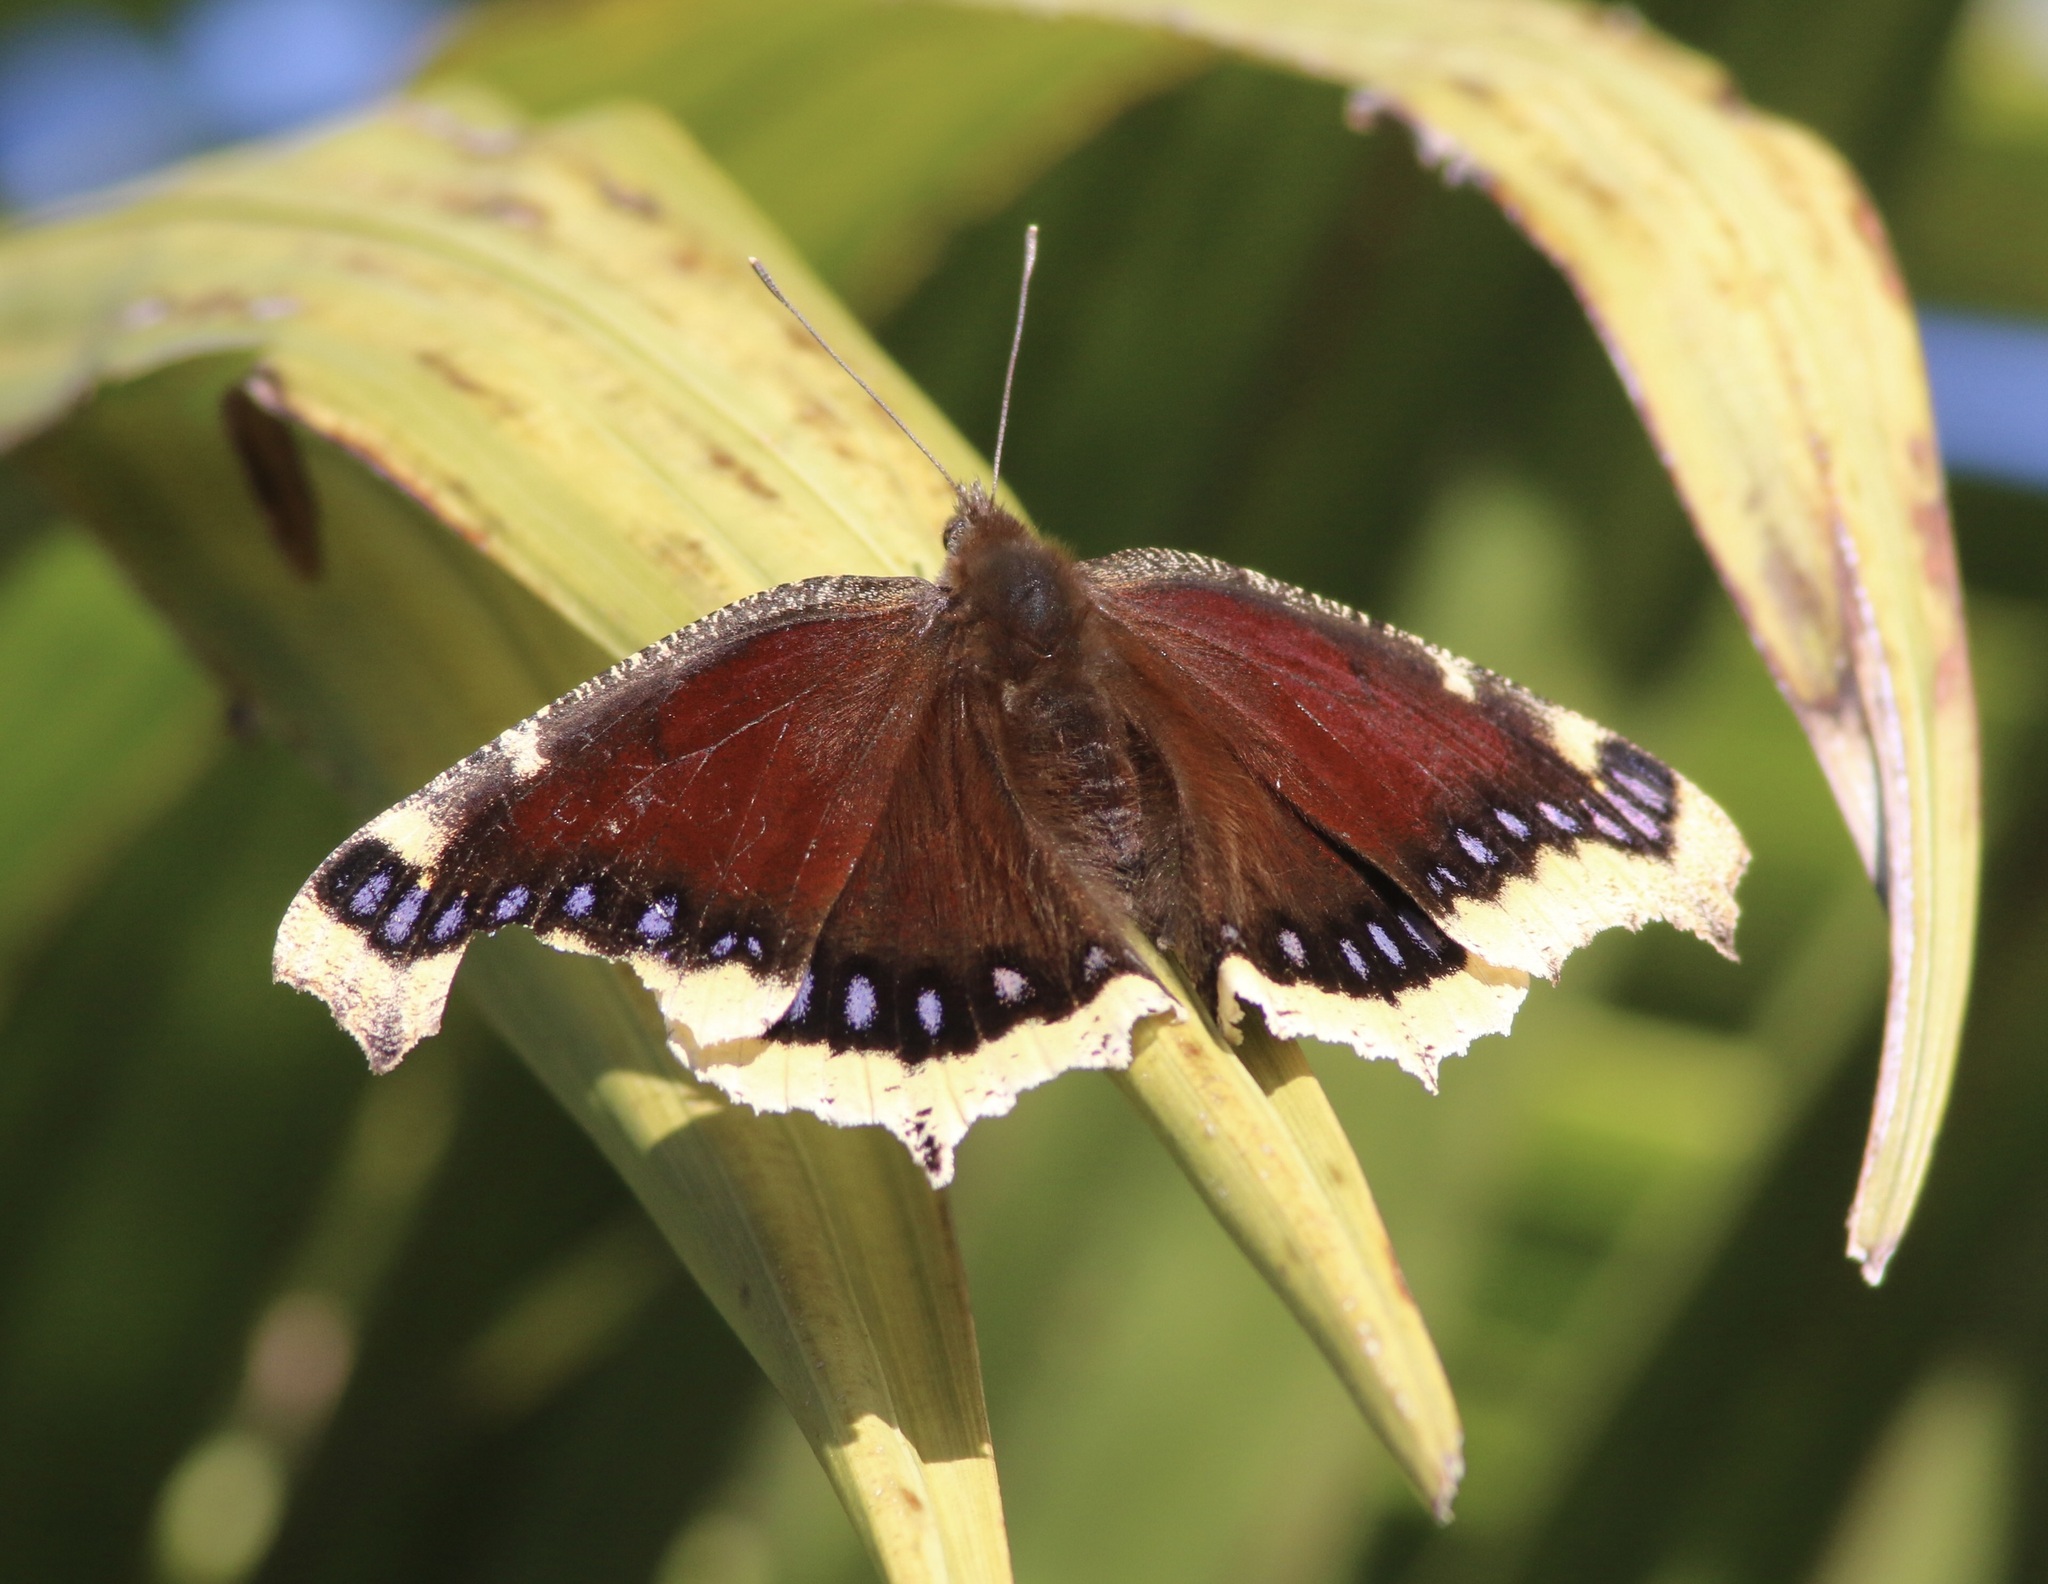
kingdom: Animalia
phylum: Arthropoda
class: Insecta
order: Lepidoptera
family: Nymphalidae
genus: Nymphalis
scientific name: Nymphalis antiopa
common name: Camberwell beauty
